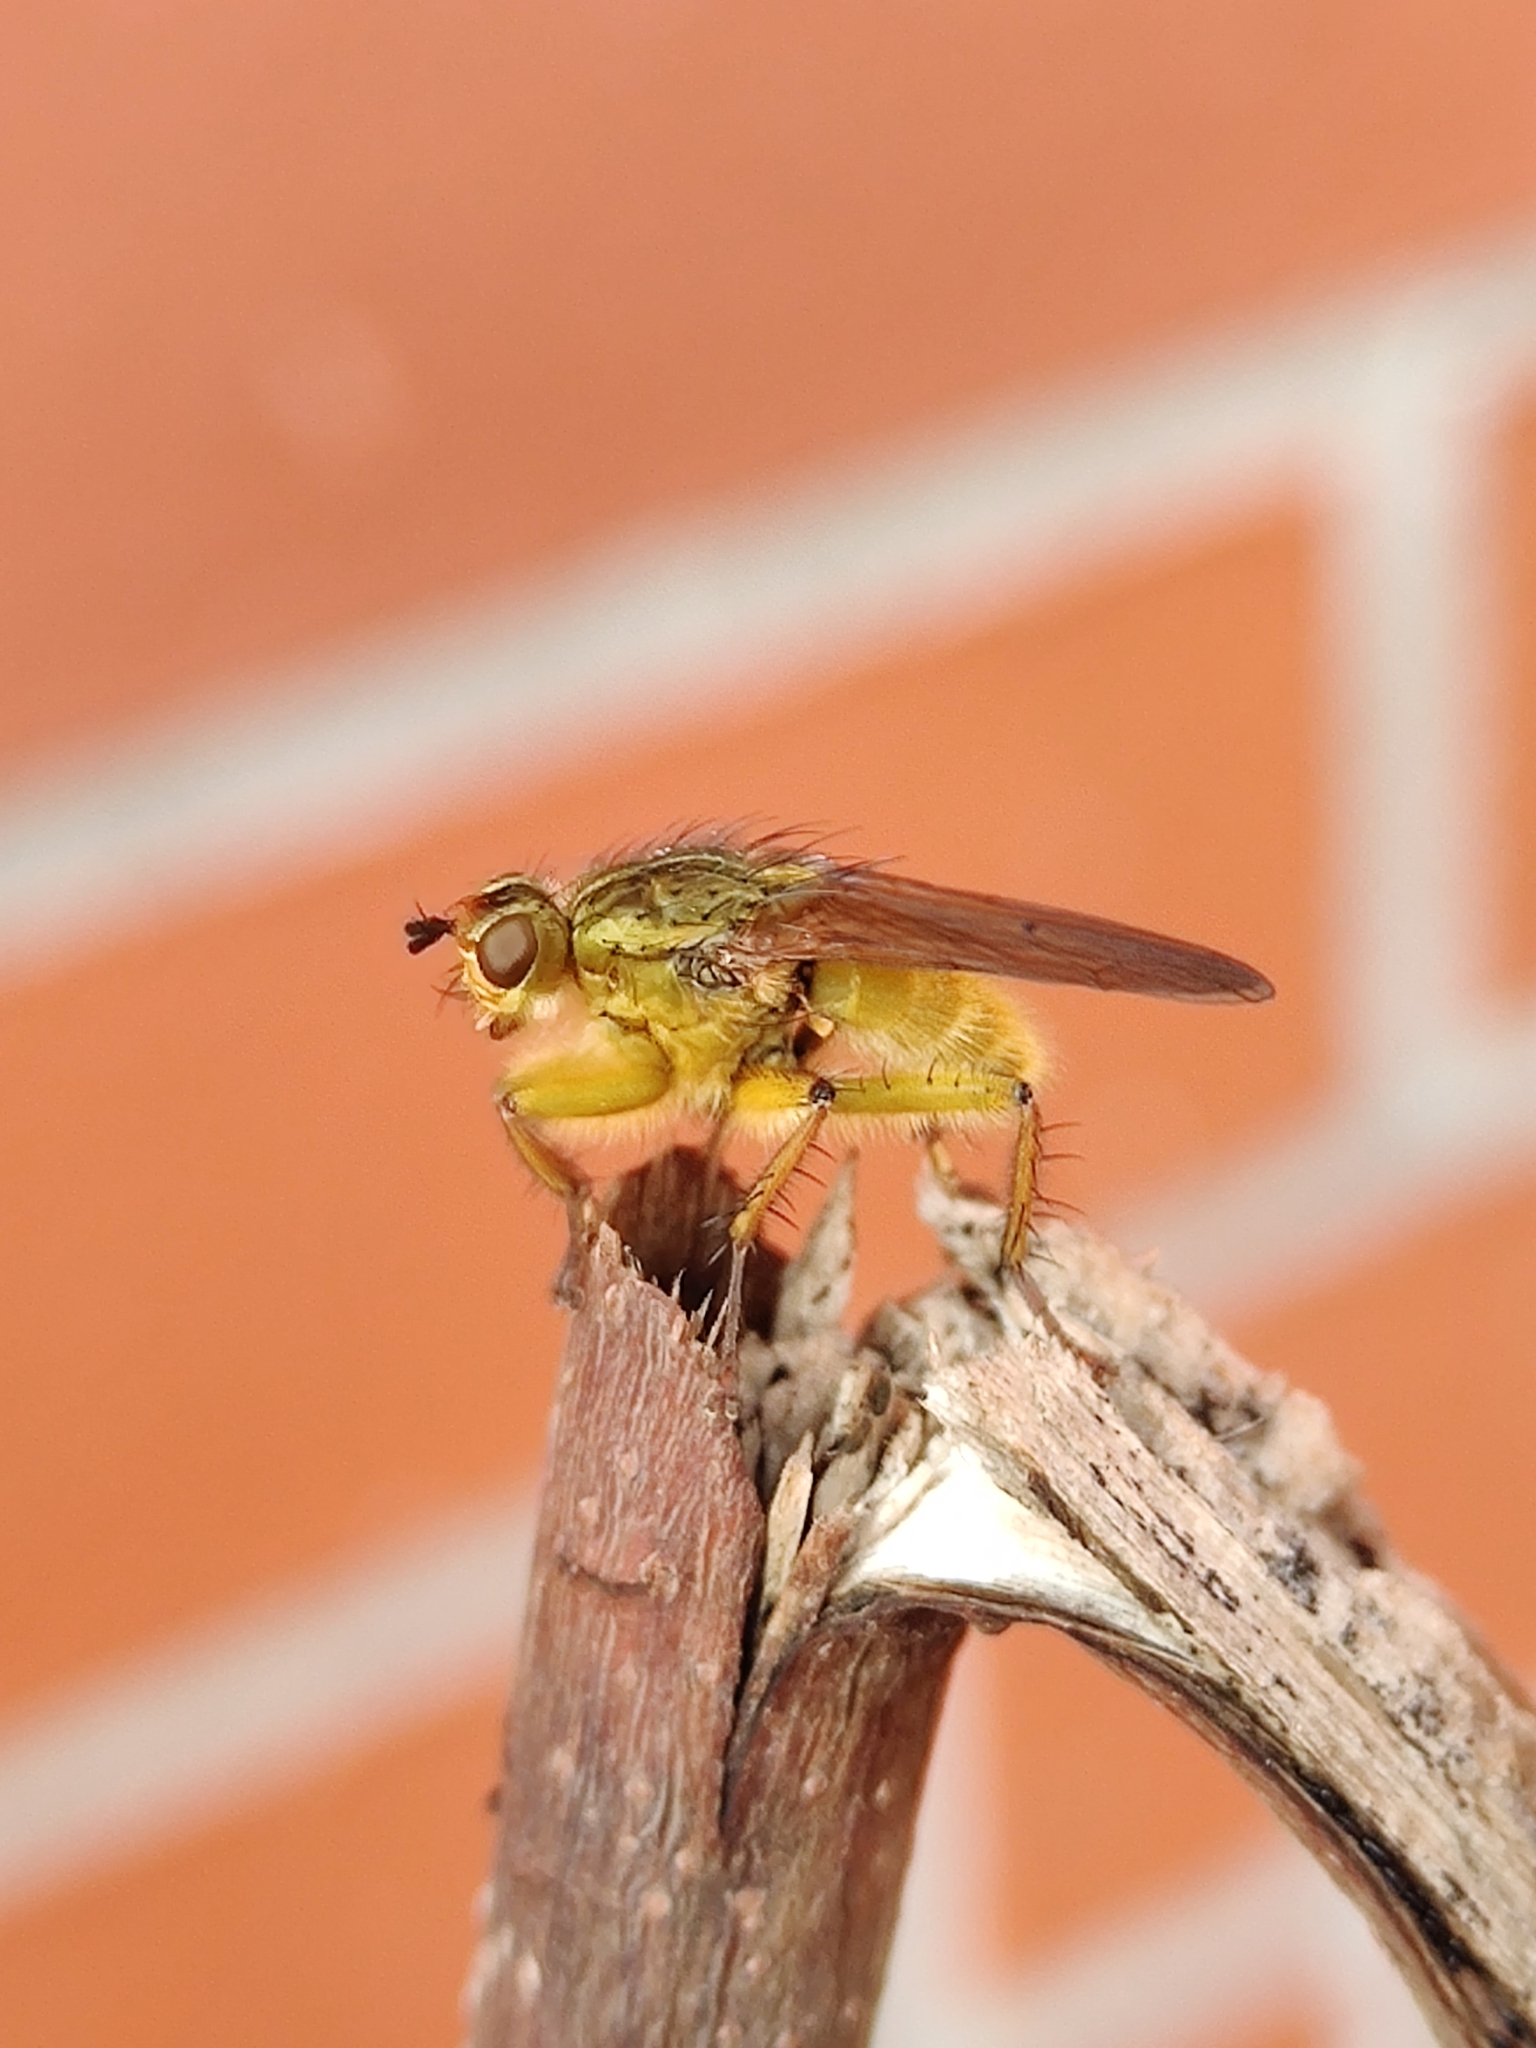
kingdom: Animalia
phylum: Arthropoda
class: Insecta
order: Diptera
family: Scathophagidae
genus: Scathophaga
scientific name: Scathophaga stercoraria
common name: Yellow dung fly
